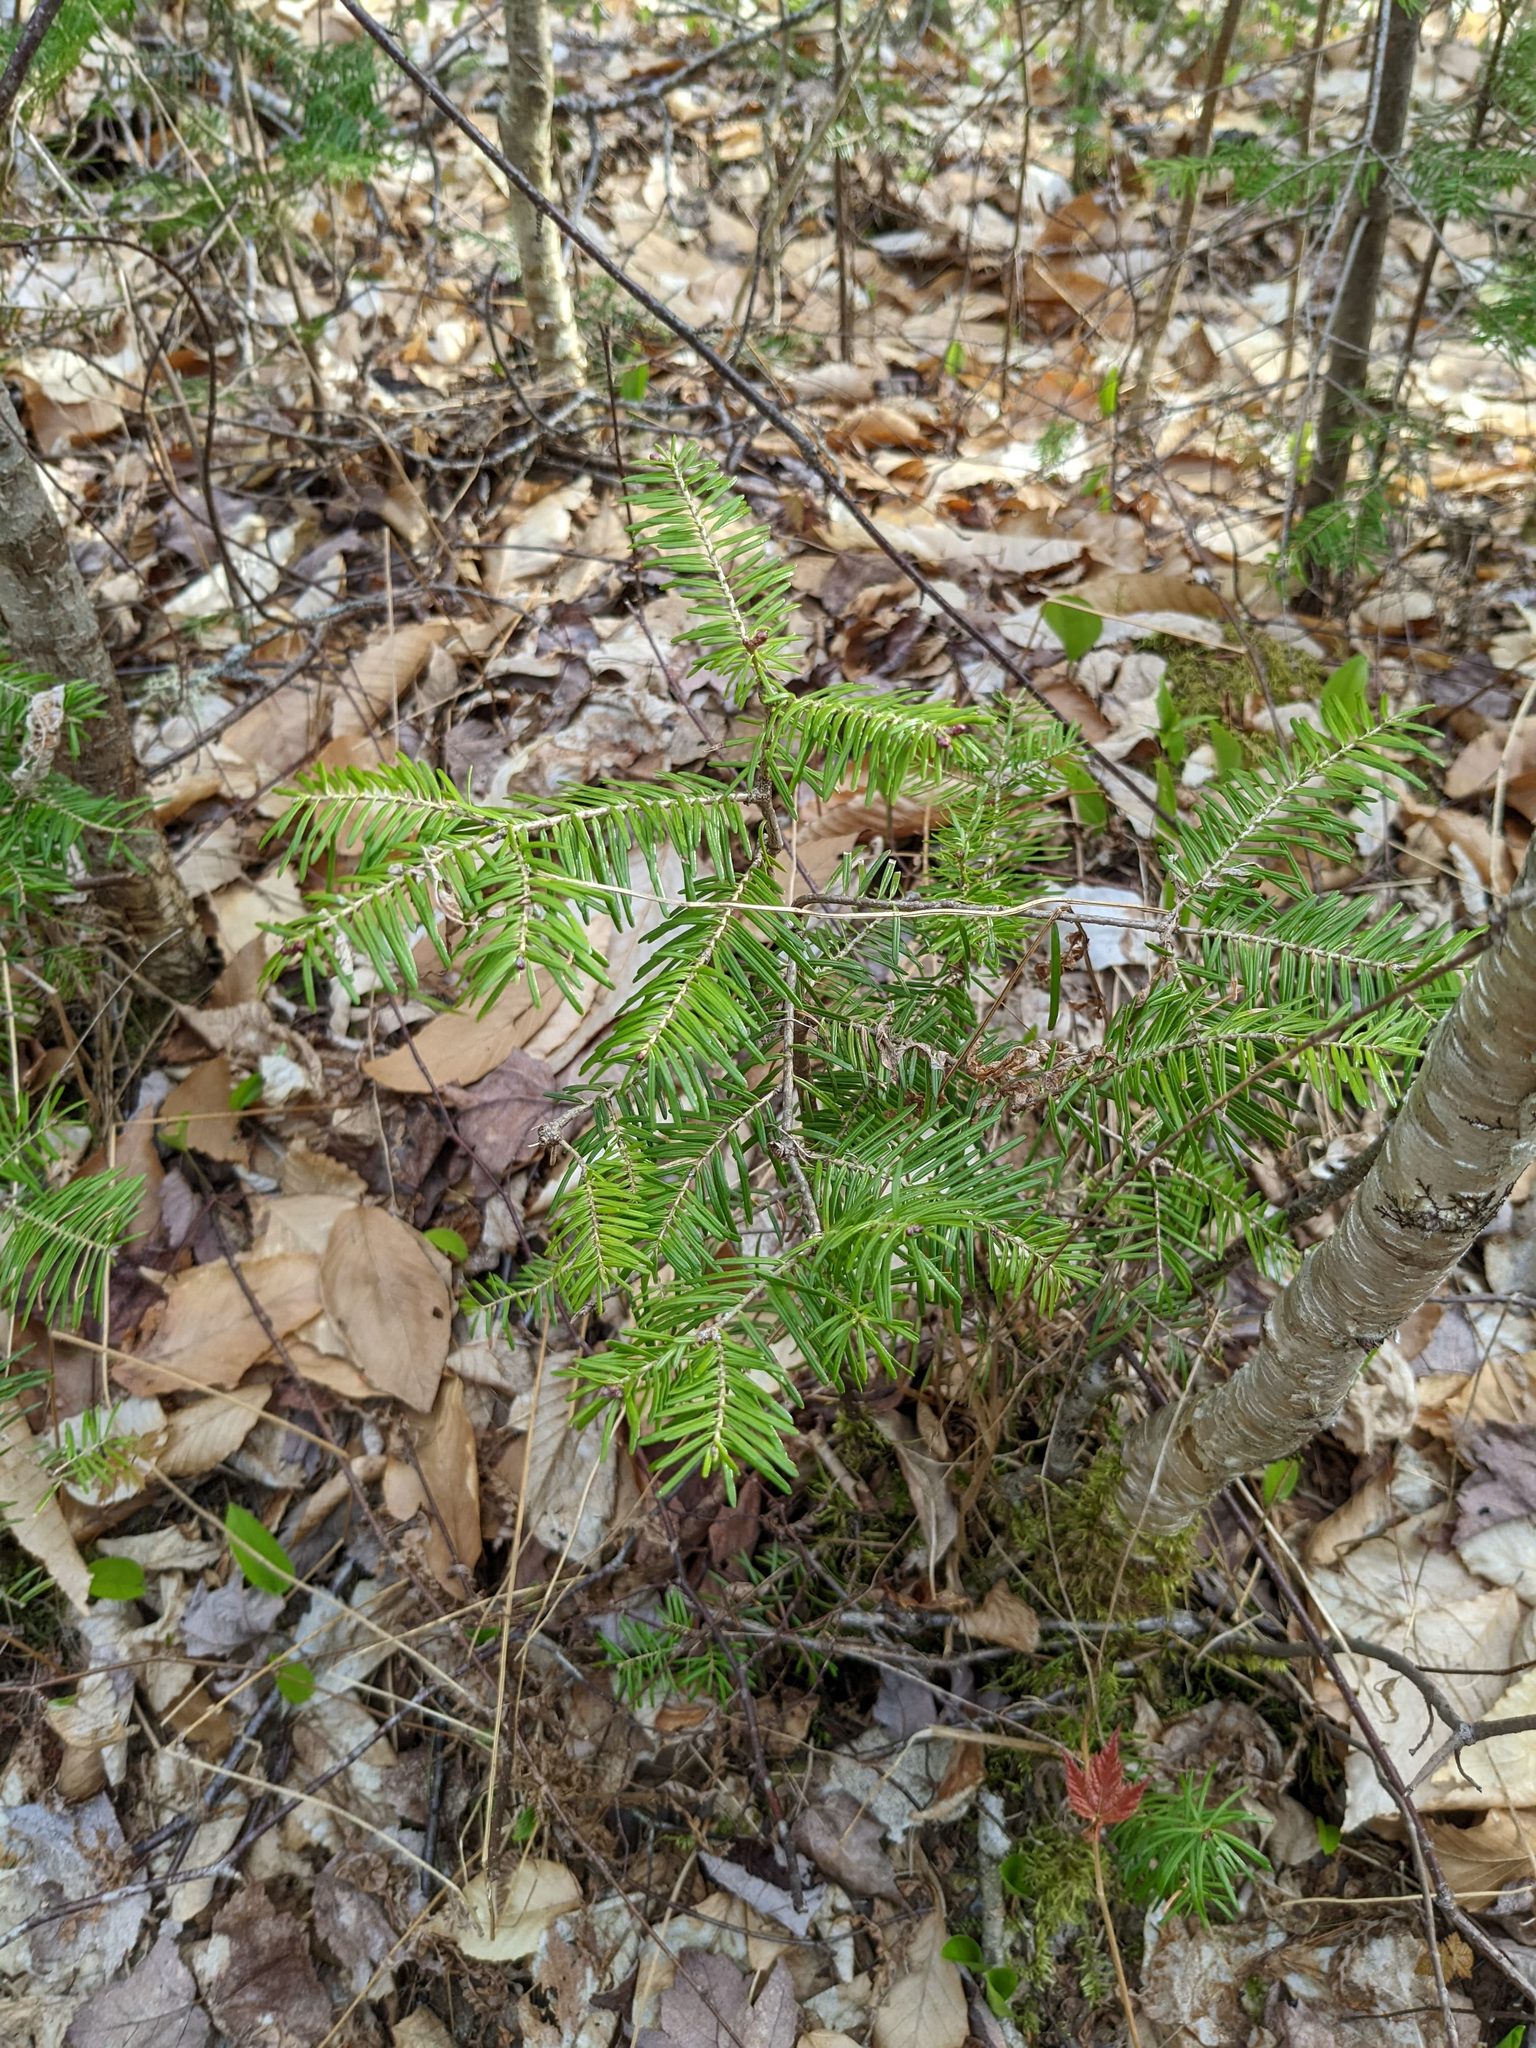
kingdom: Plantae
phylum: Tracheophyta
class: Pinopsida
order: Pinales
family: Pinaceae
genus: Abies
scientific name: Abies balsamea
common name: Balsam fir
